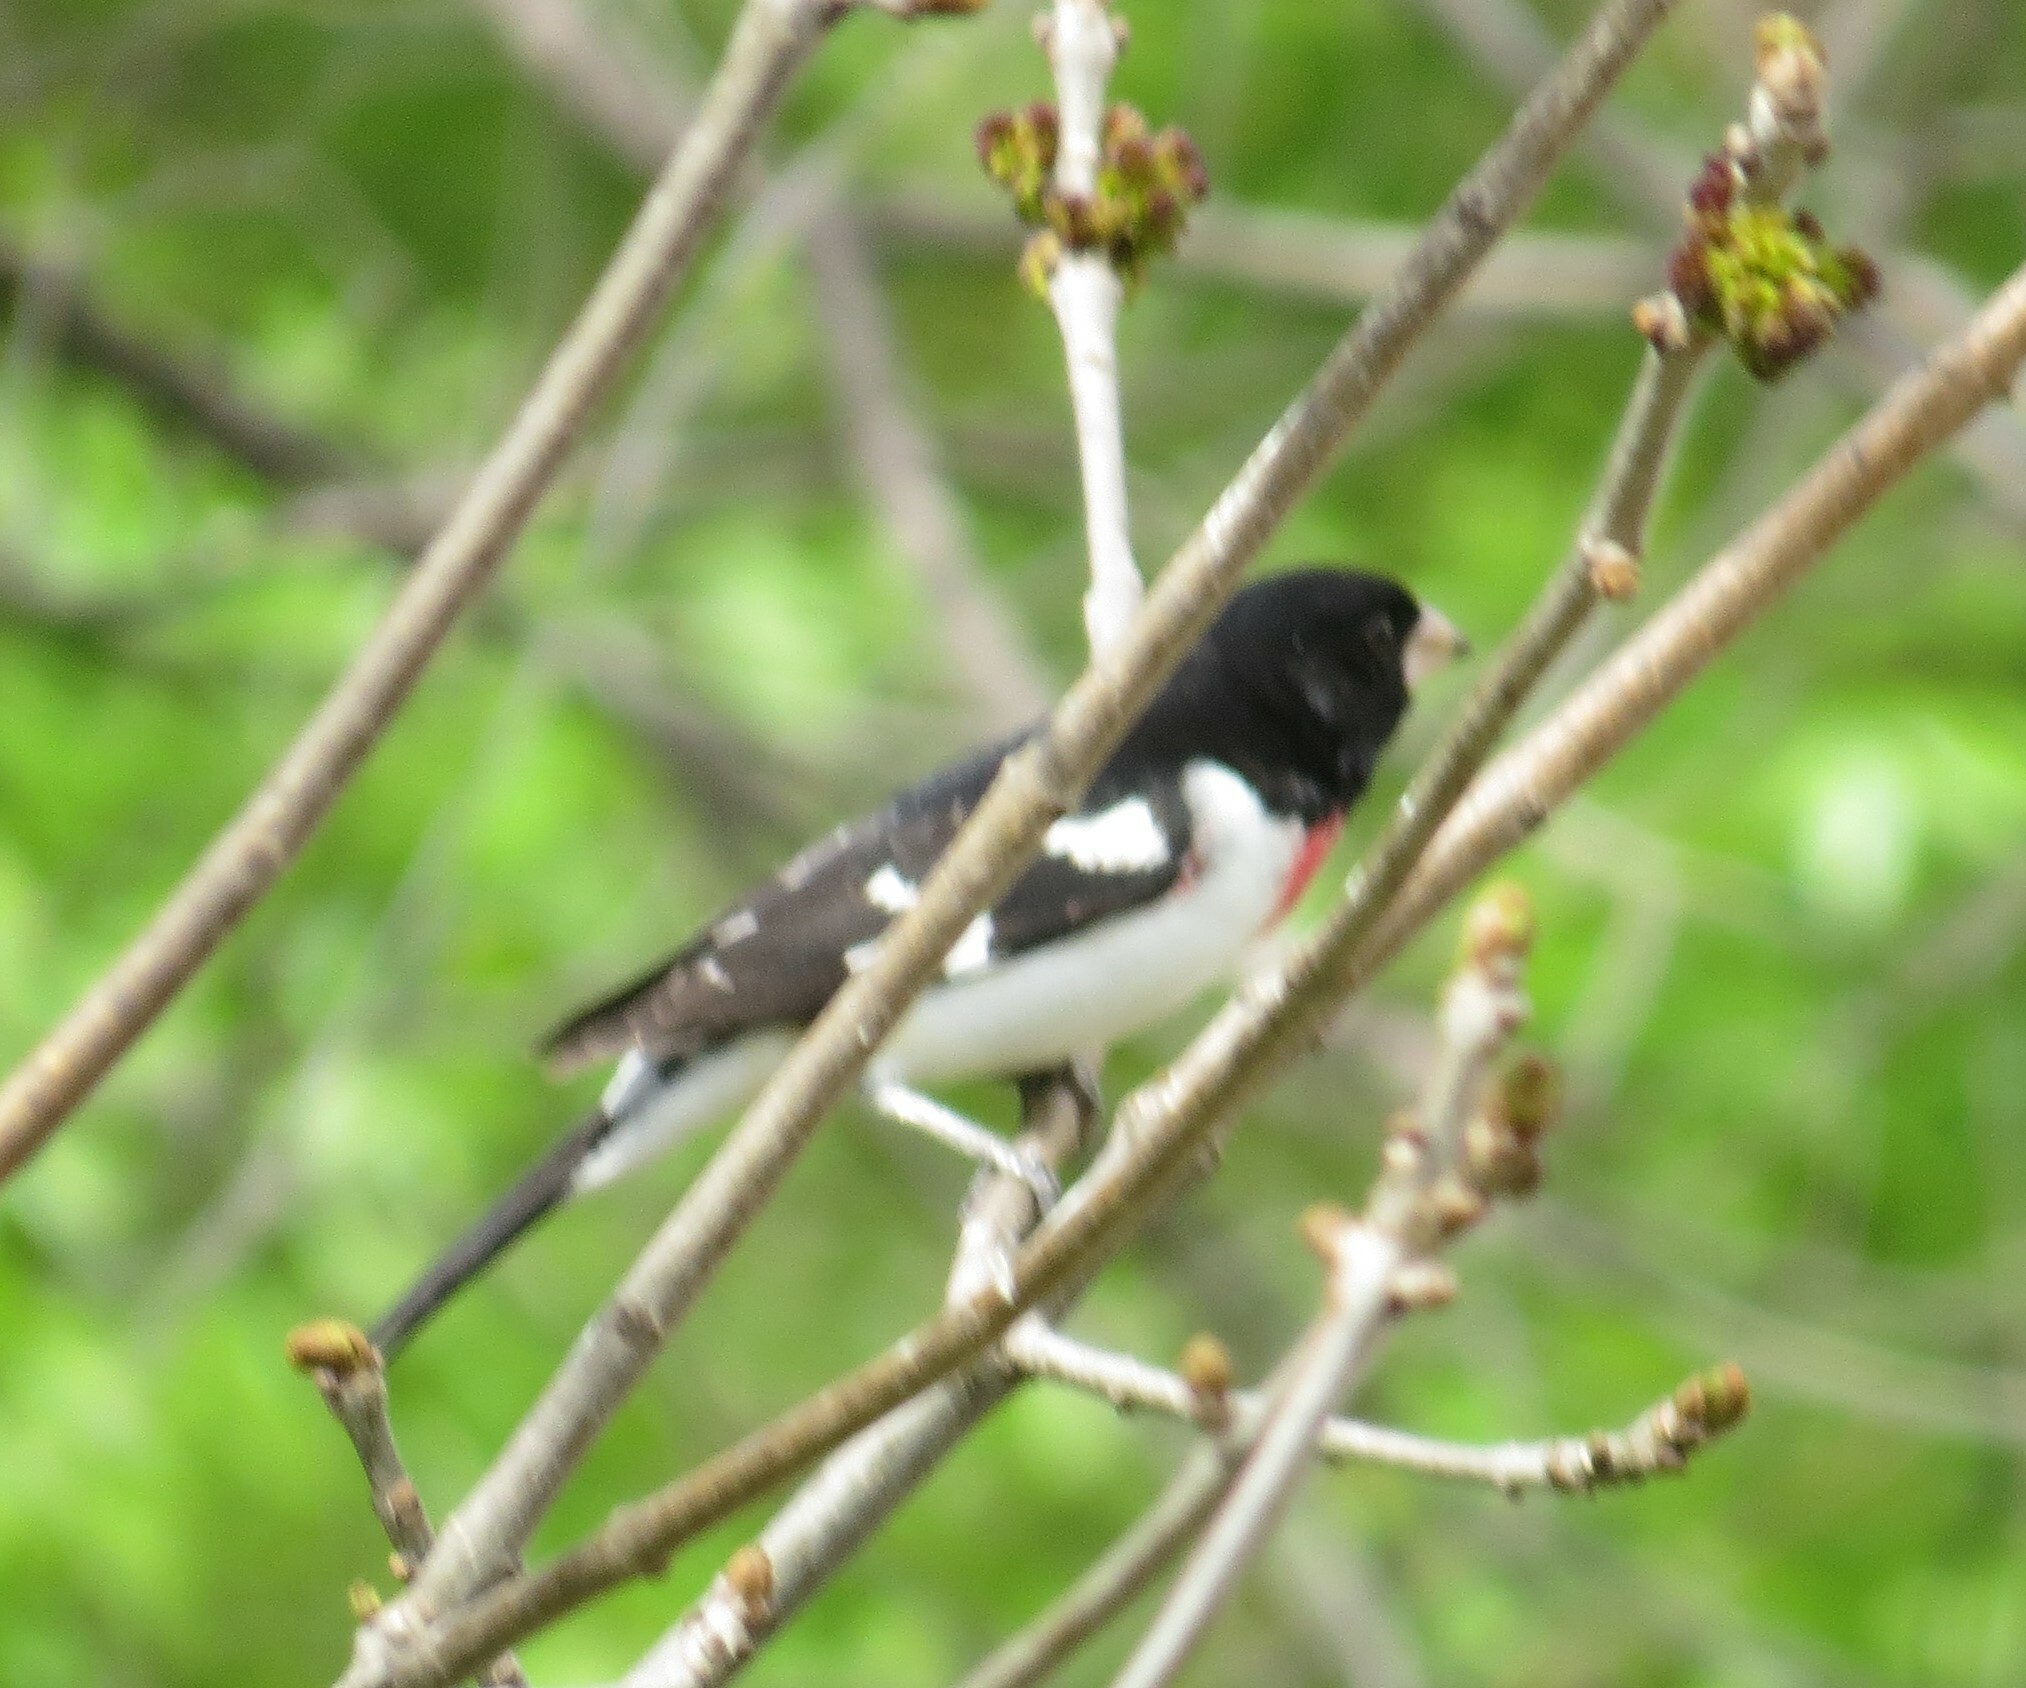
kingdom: Animalia
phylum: Chordata
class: Aves
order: Passeriformes
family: Cardinalidae
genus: Pheucticus
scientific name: Pheucticus ludovicianus
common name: Rose-breasted grosbeak
